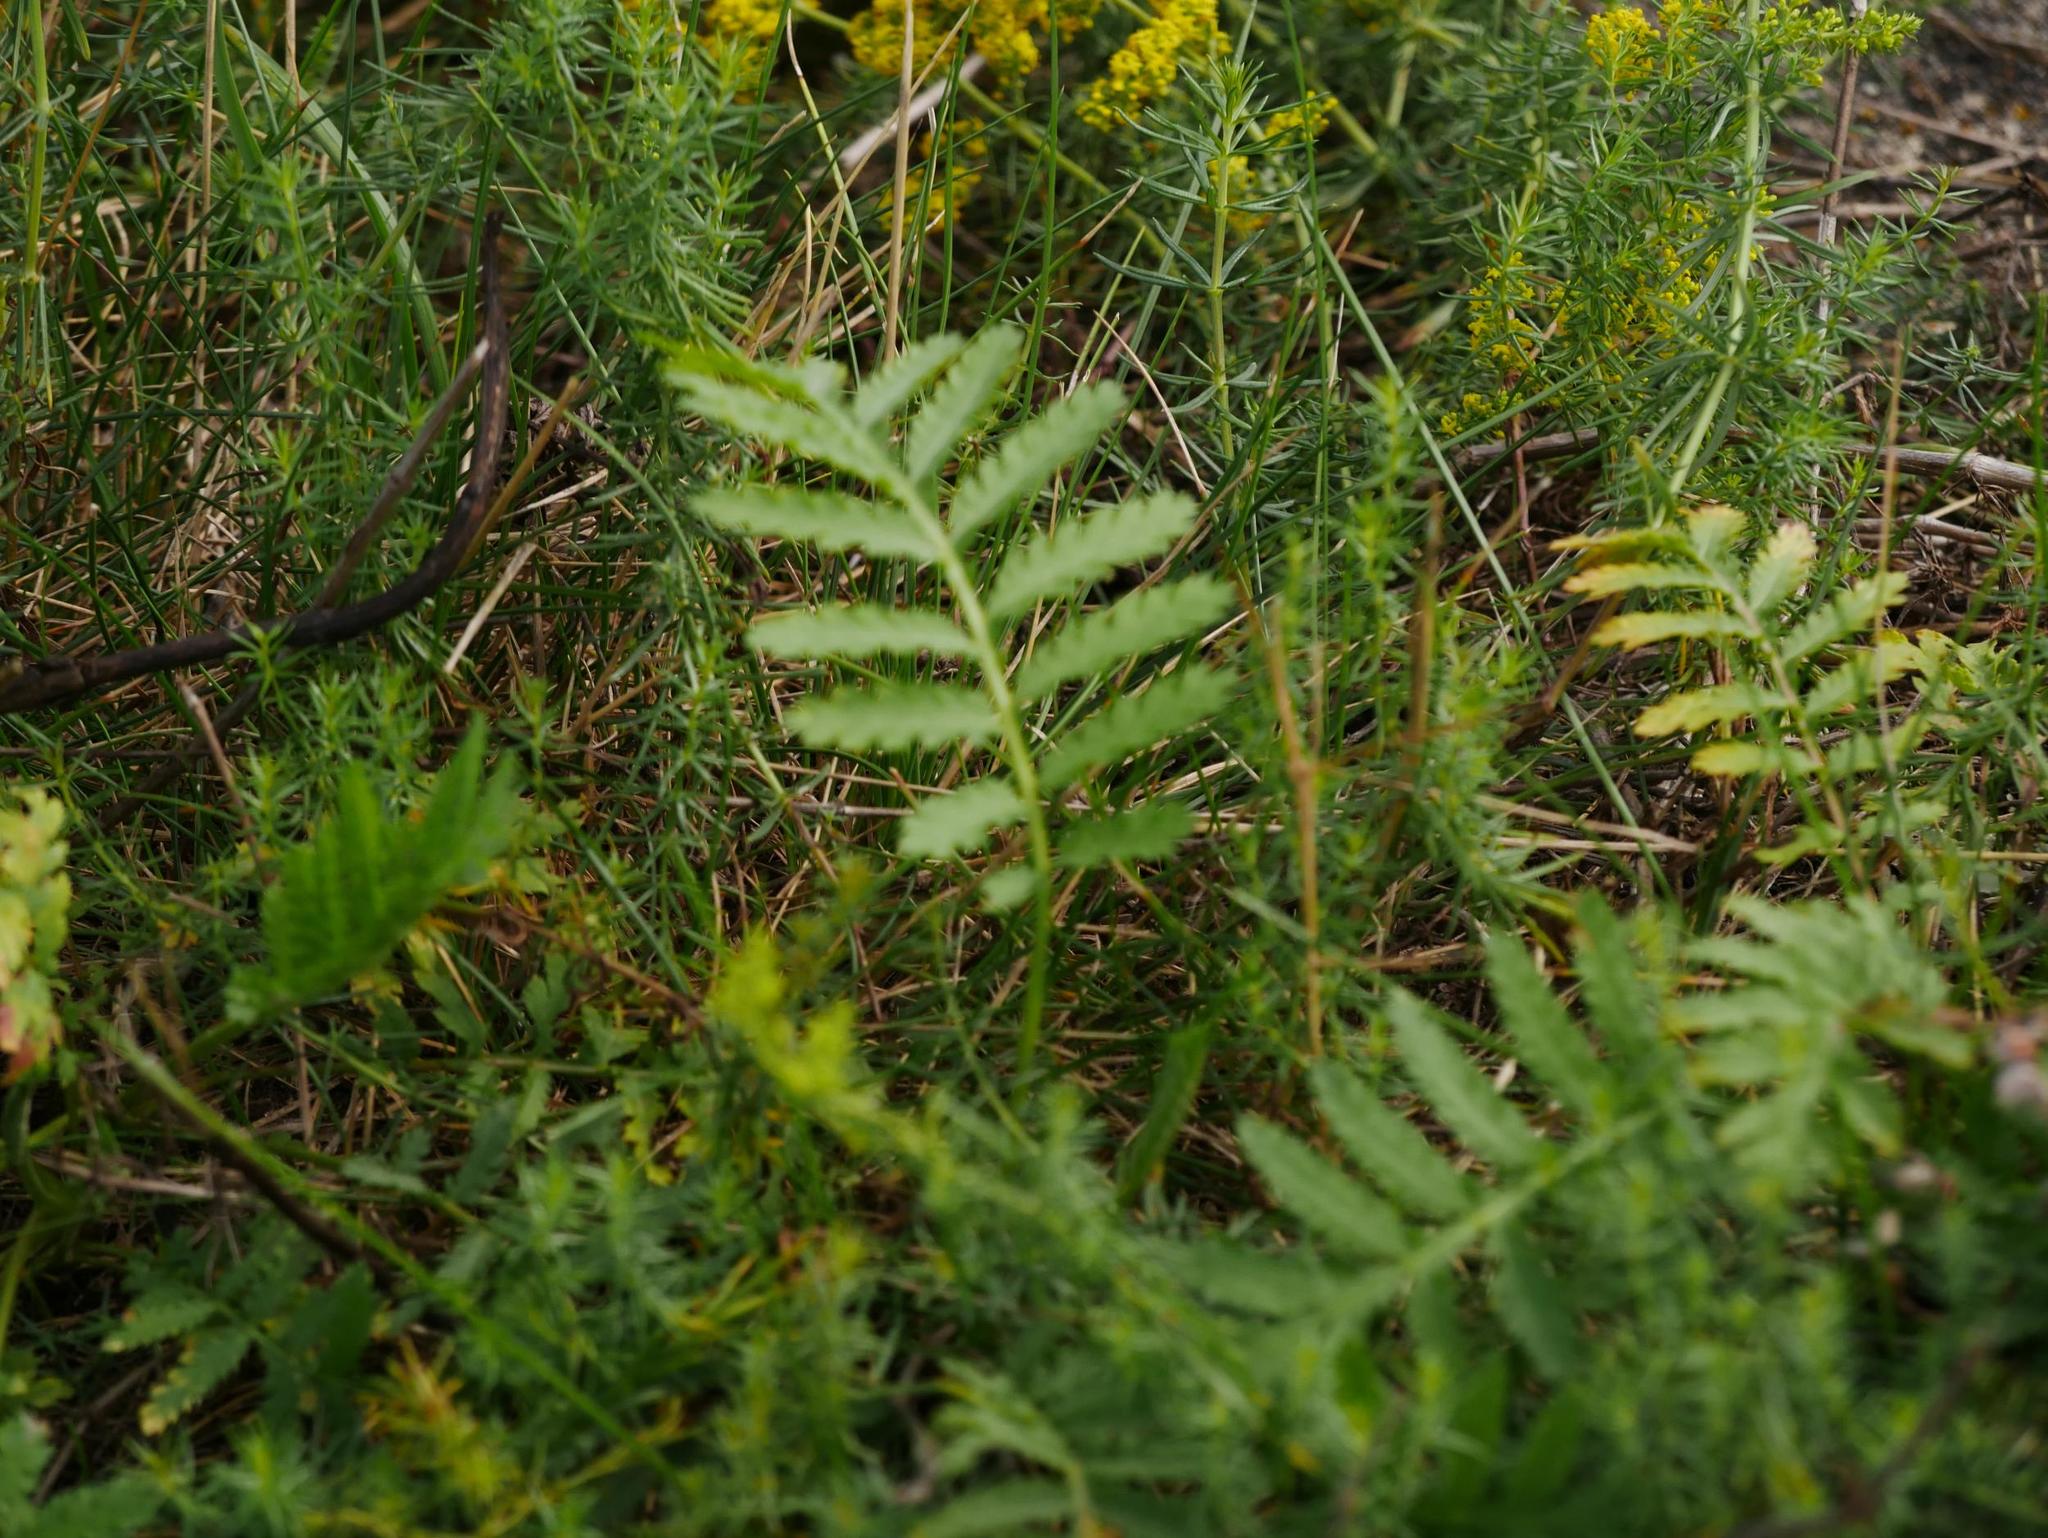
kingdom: Plantae
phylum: Tracheophyta
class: Magnoliopsida
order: Asterales
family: Asteraceae
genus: Tanacetum
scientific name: Tanacetum vulgare
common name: Common tansy
